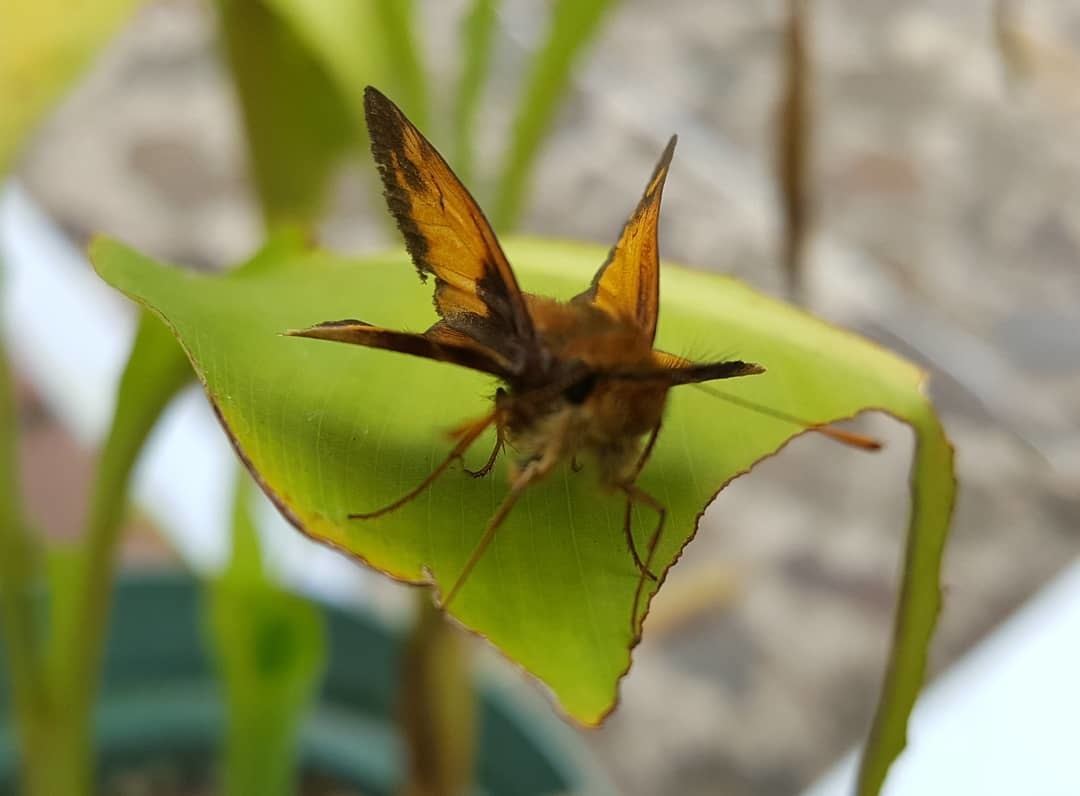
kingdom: Animalia
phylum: Arthropoda
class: Insecta
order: Lepidoptera
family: Hesperiidae
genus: Lon
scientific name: Lon zabulon
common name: Zabulon skipper
